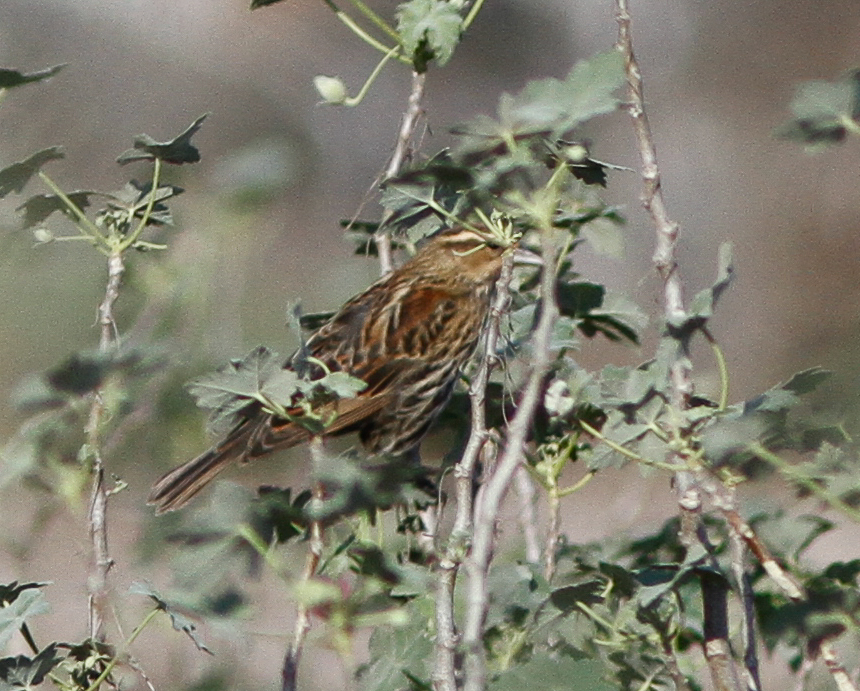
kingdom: Animalia
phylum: Chordata
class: Aves
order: Passeriformes
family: Icteridae
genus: Agelaius
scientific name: Agelaius phoeniceus
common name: Red-winged blackbird
